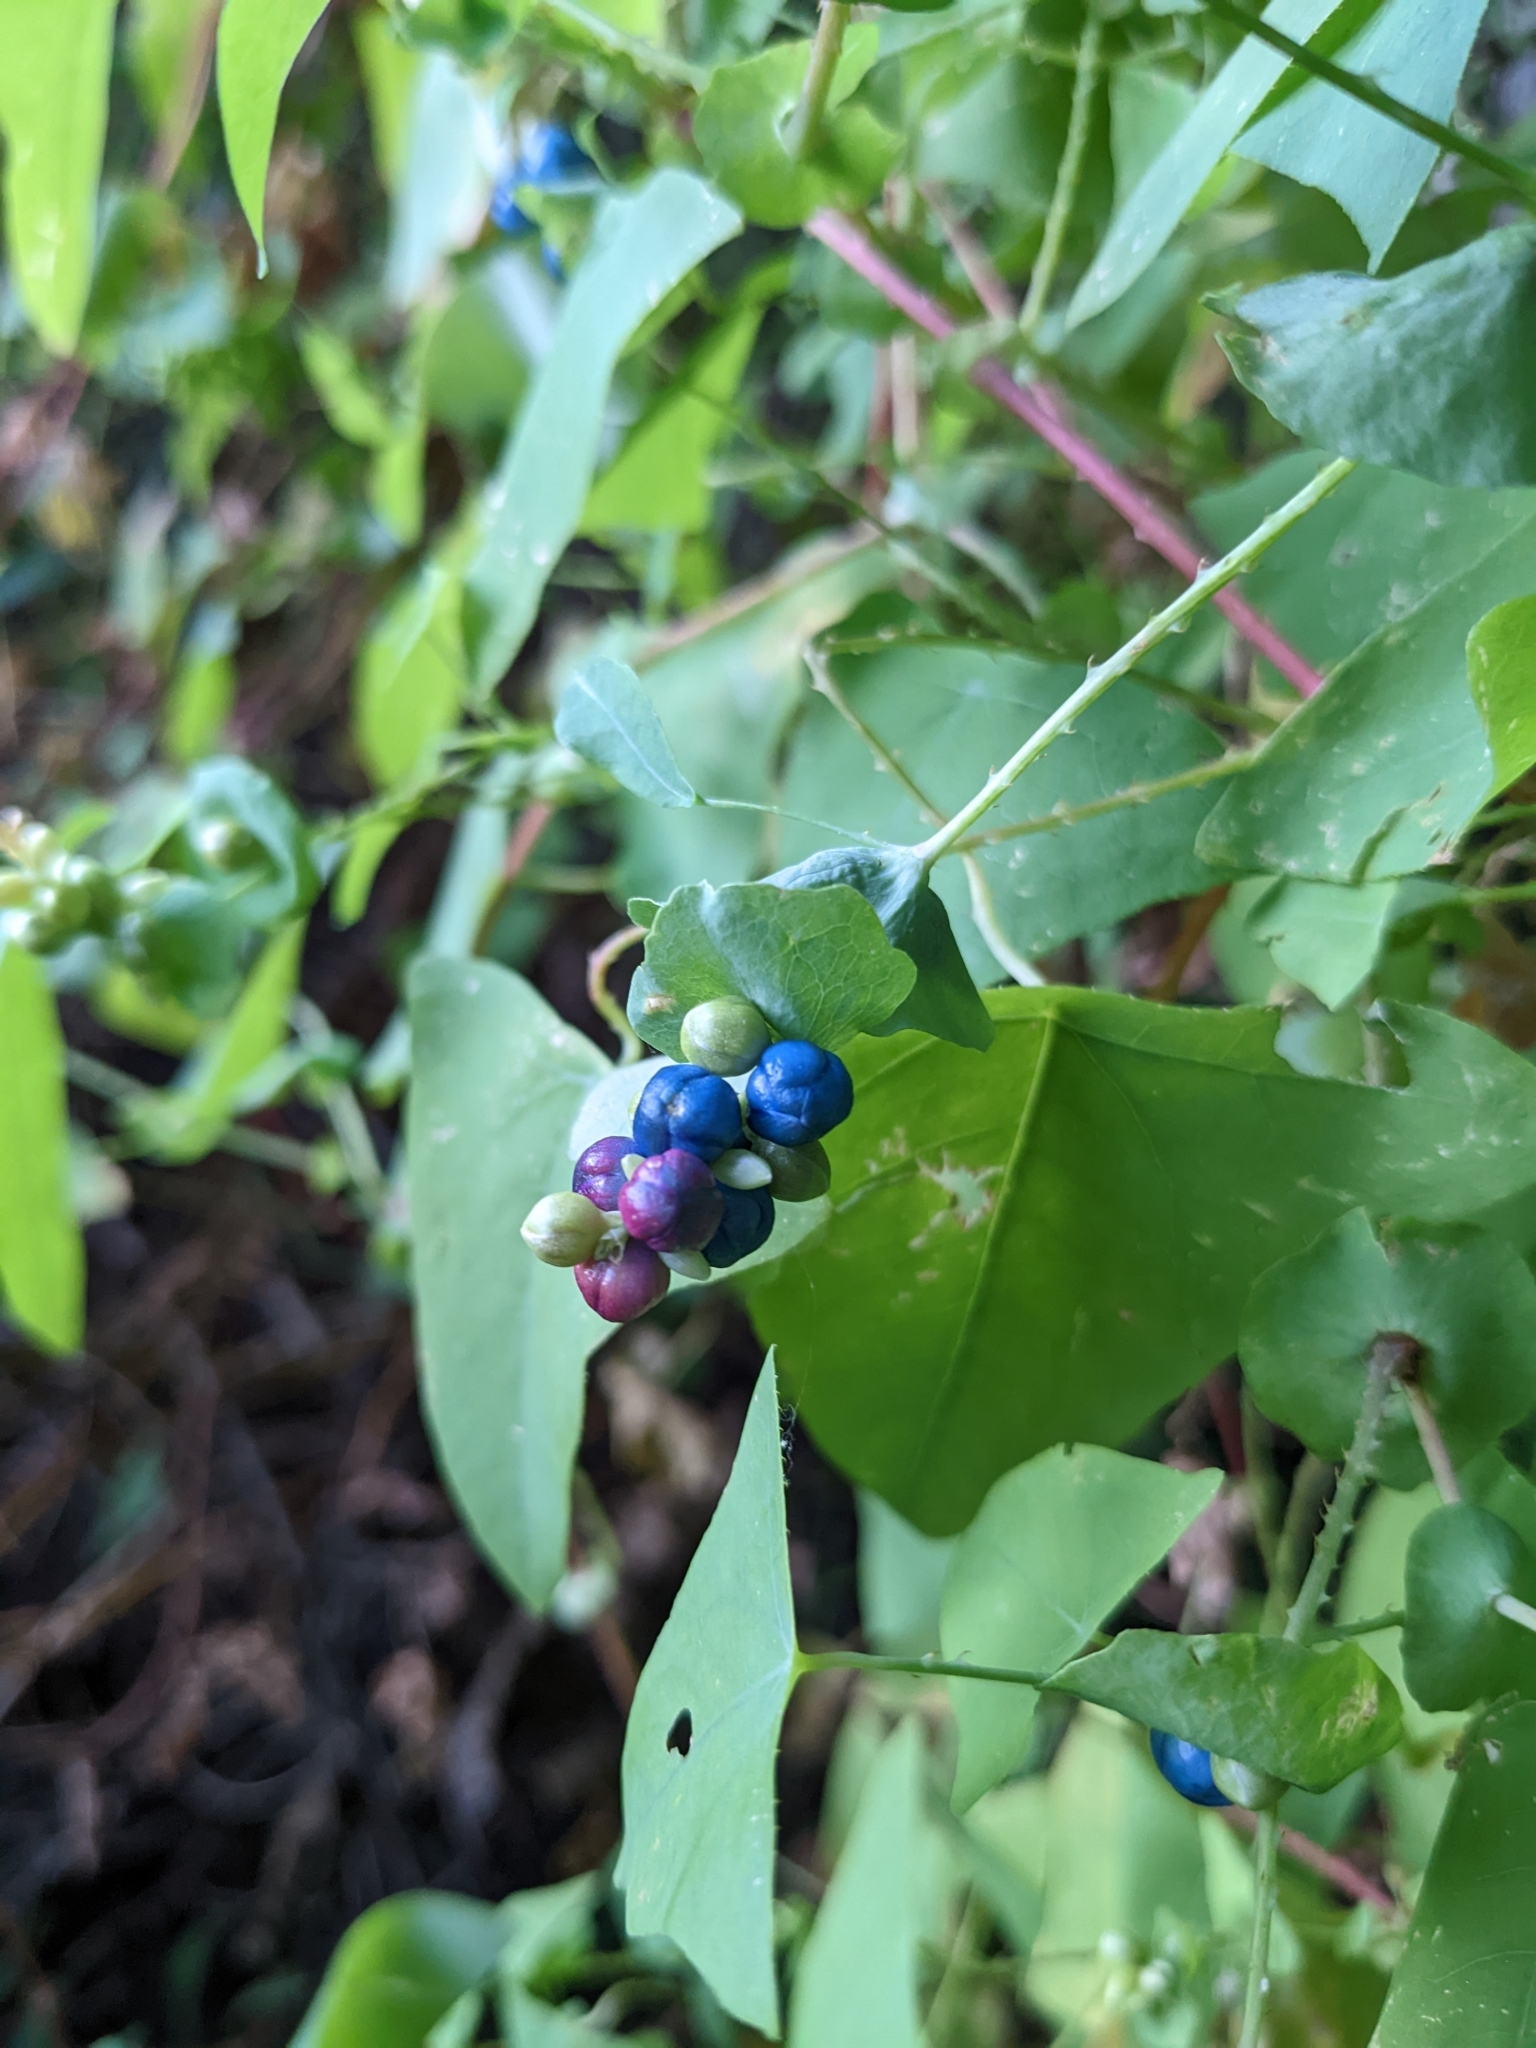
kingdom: Plantae
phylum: Tracheophyta
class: Magnoliopsida
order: Caryophyllales
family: Polygonaceae
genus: Persicaria
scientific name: Persicaria perfoliata
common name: Asiatic tearthumb
